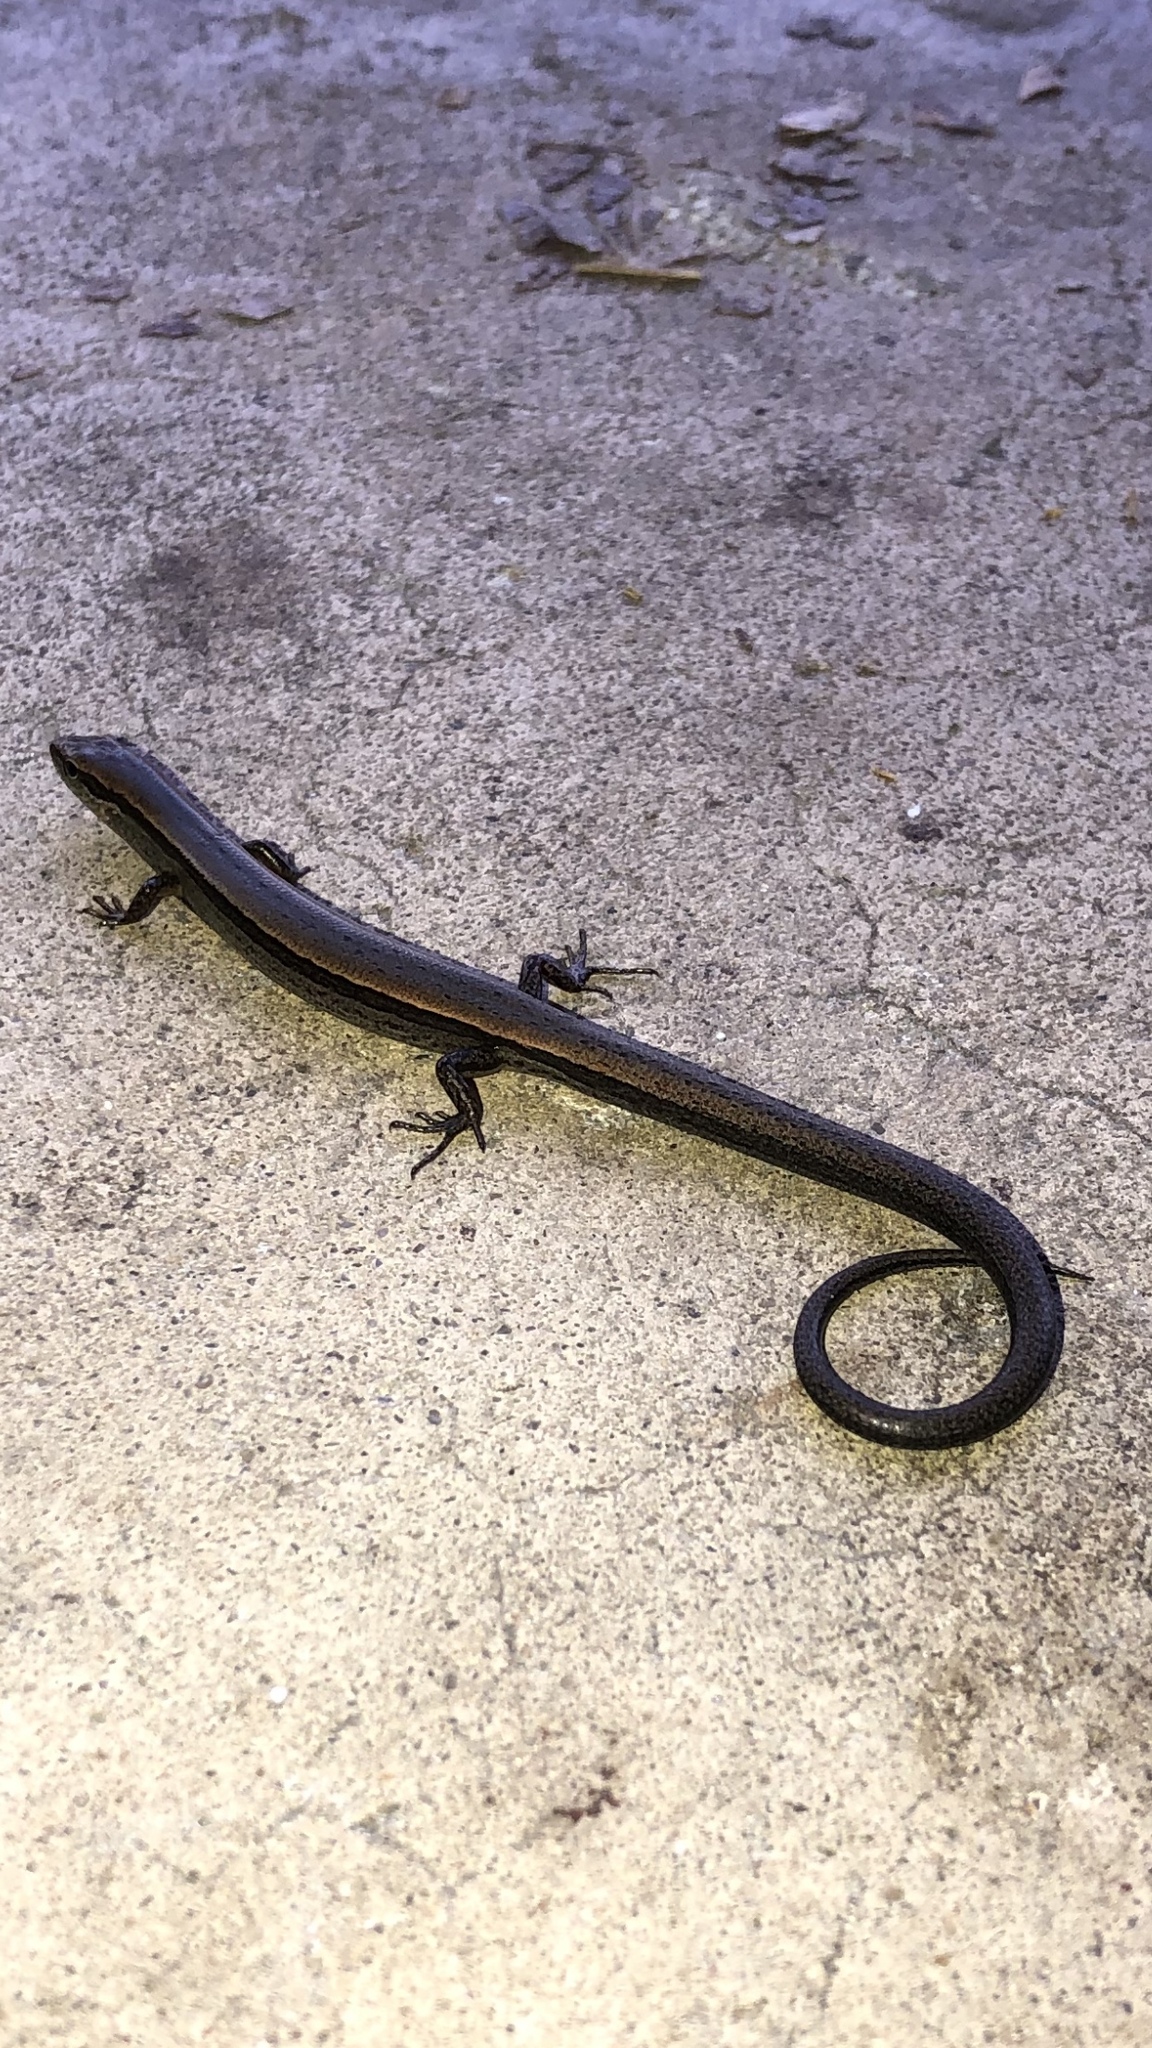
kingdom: Animalia
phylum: Chordata
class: Squamata
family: Scincidae
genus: Scincella
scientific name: Scincella lateralis
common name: Ground skink
